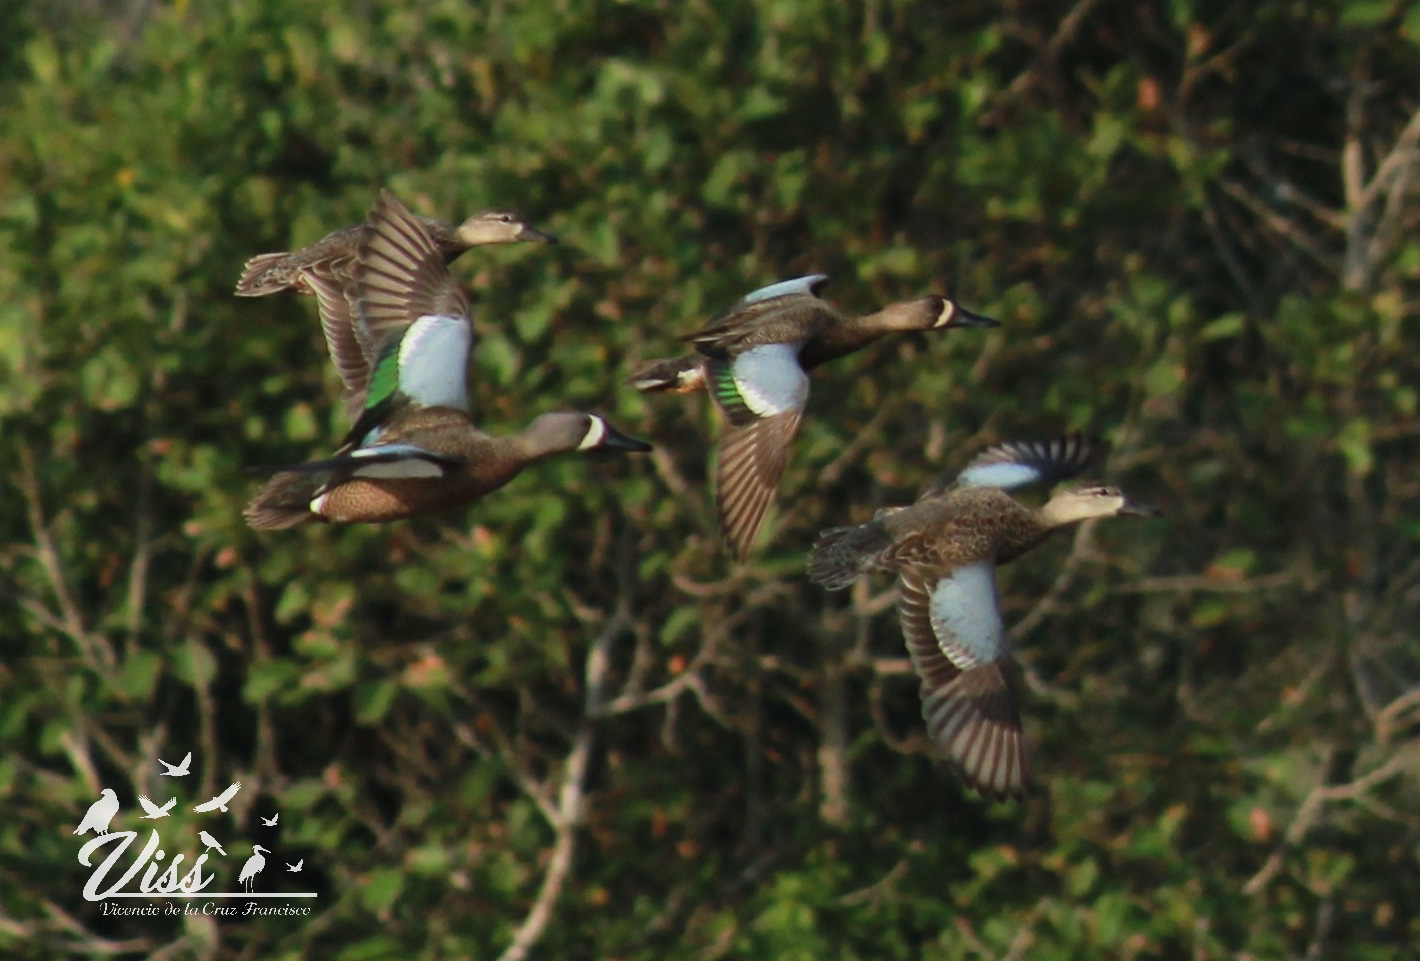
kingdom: Animalia
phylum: Chordata
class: Aves
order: Anseriformes
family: Anatidae
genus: Spatula
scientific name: Spatula discors
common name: Blue-winged teal
